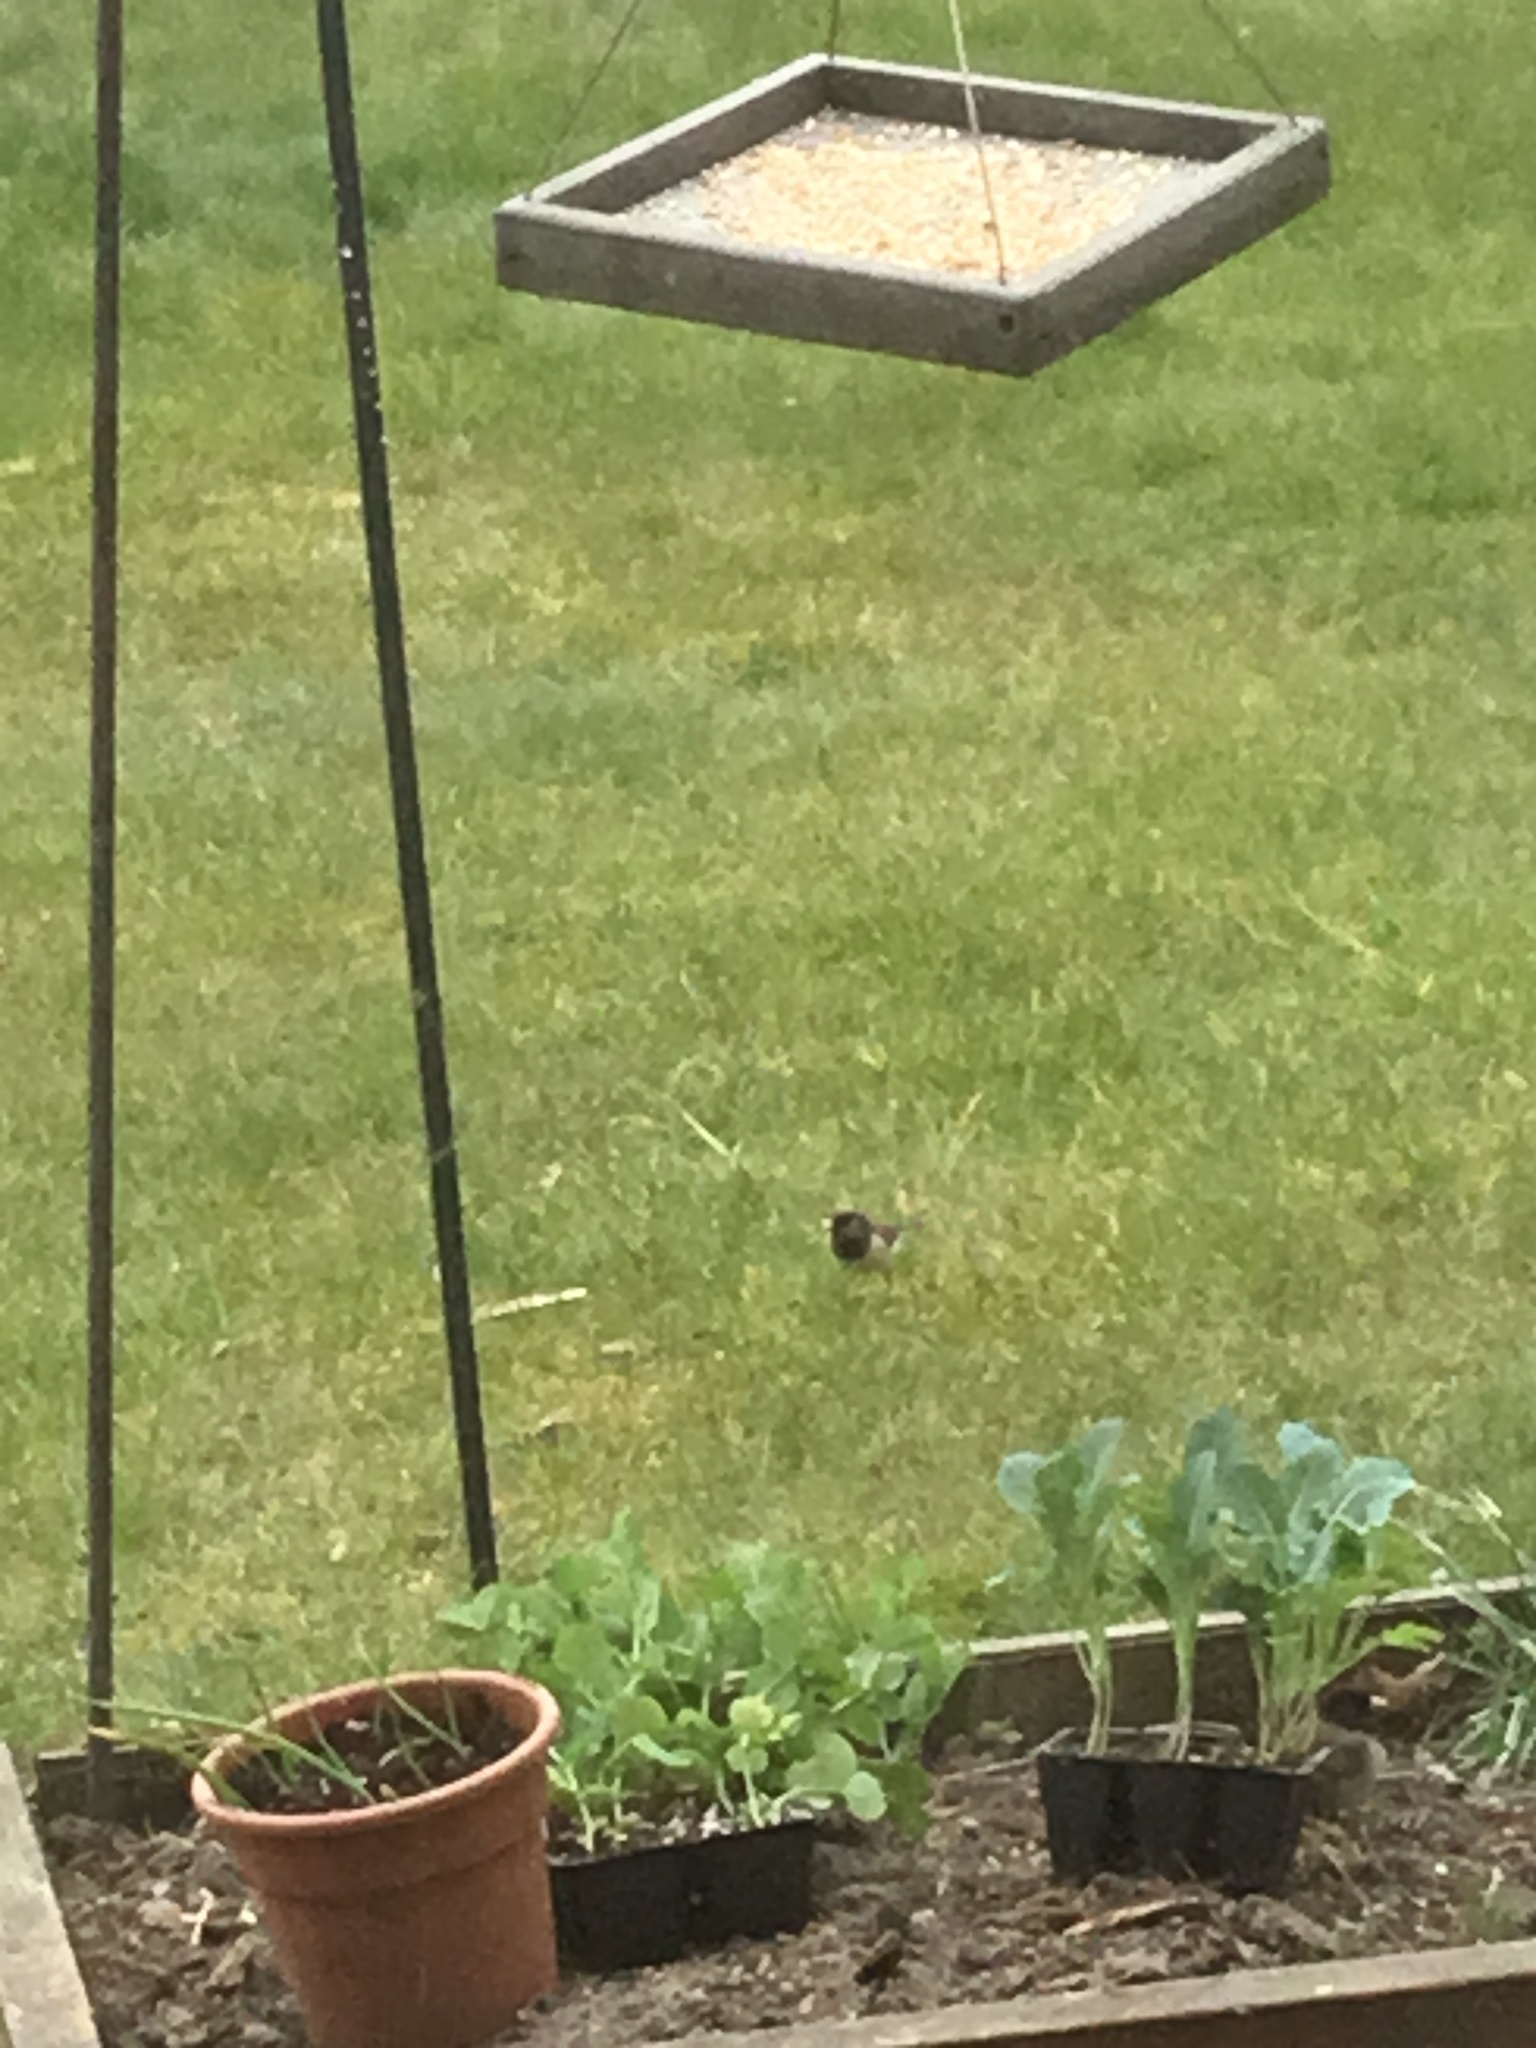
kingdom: Animalia
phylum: Chordata
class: Aves
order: Passeriformes
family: Passerellidae
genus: Junco
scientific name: Junco hyemalis
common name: Dark-eyed junco
